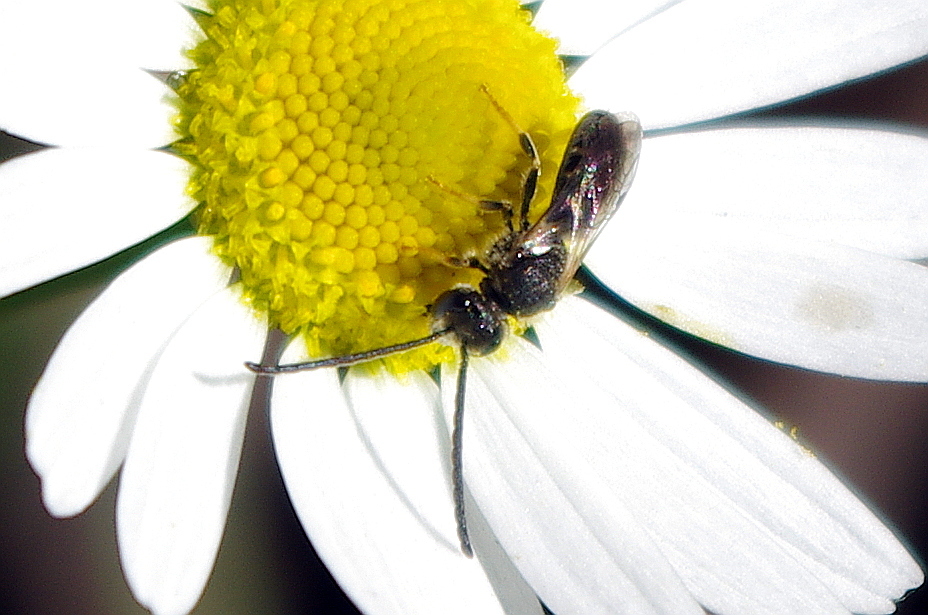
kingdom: Animalia
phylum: Arthropoda
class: Insecta
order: Hymenoptera
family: Halictidae
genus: Lasioglossum
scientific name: Lasioglossum
